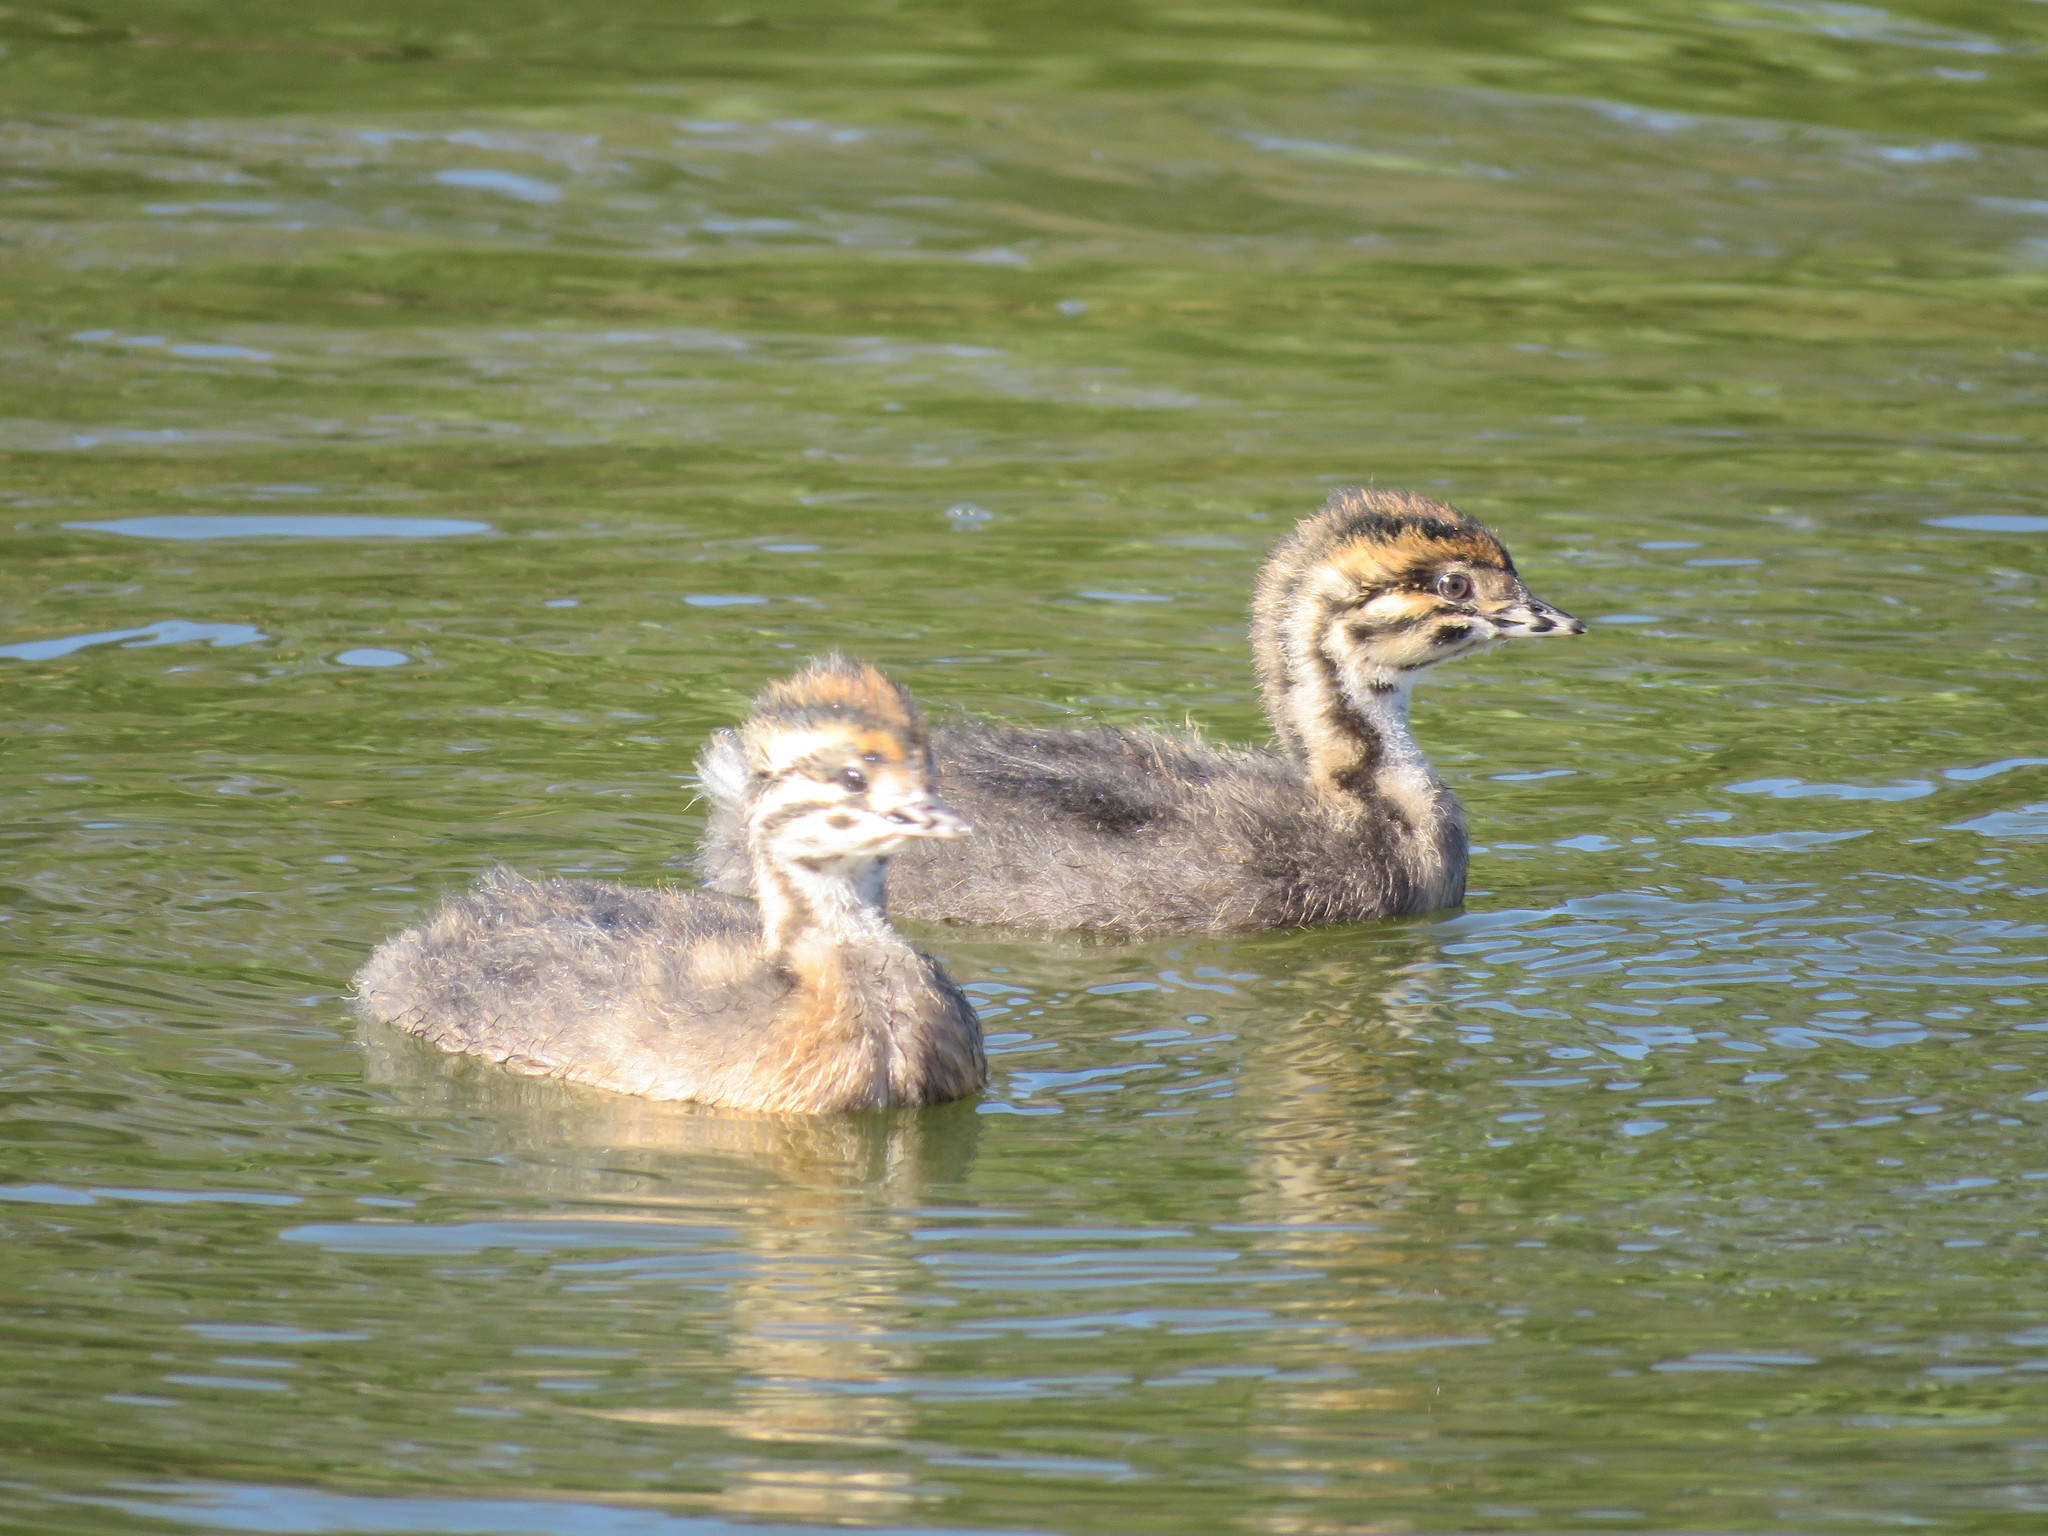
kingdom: Animalia
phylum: Chordata
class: Aves
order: Podicipediformes
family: Podicipedidae
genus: Rollandia
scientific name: Rollandia rolland
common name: White-tufted grebe
